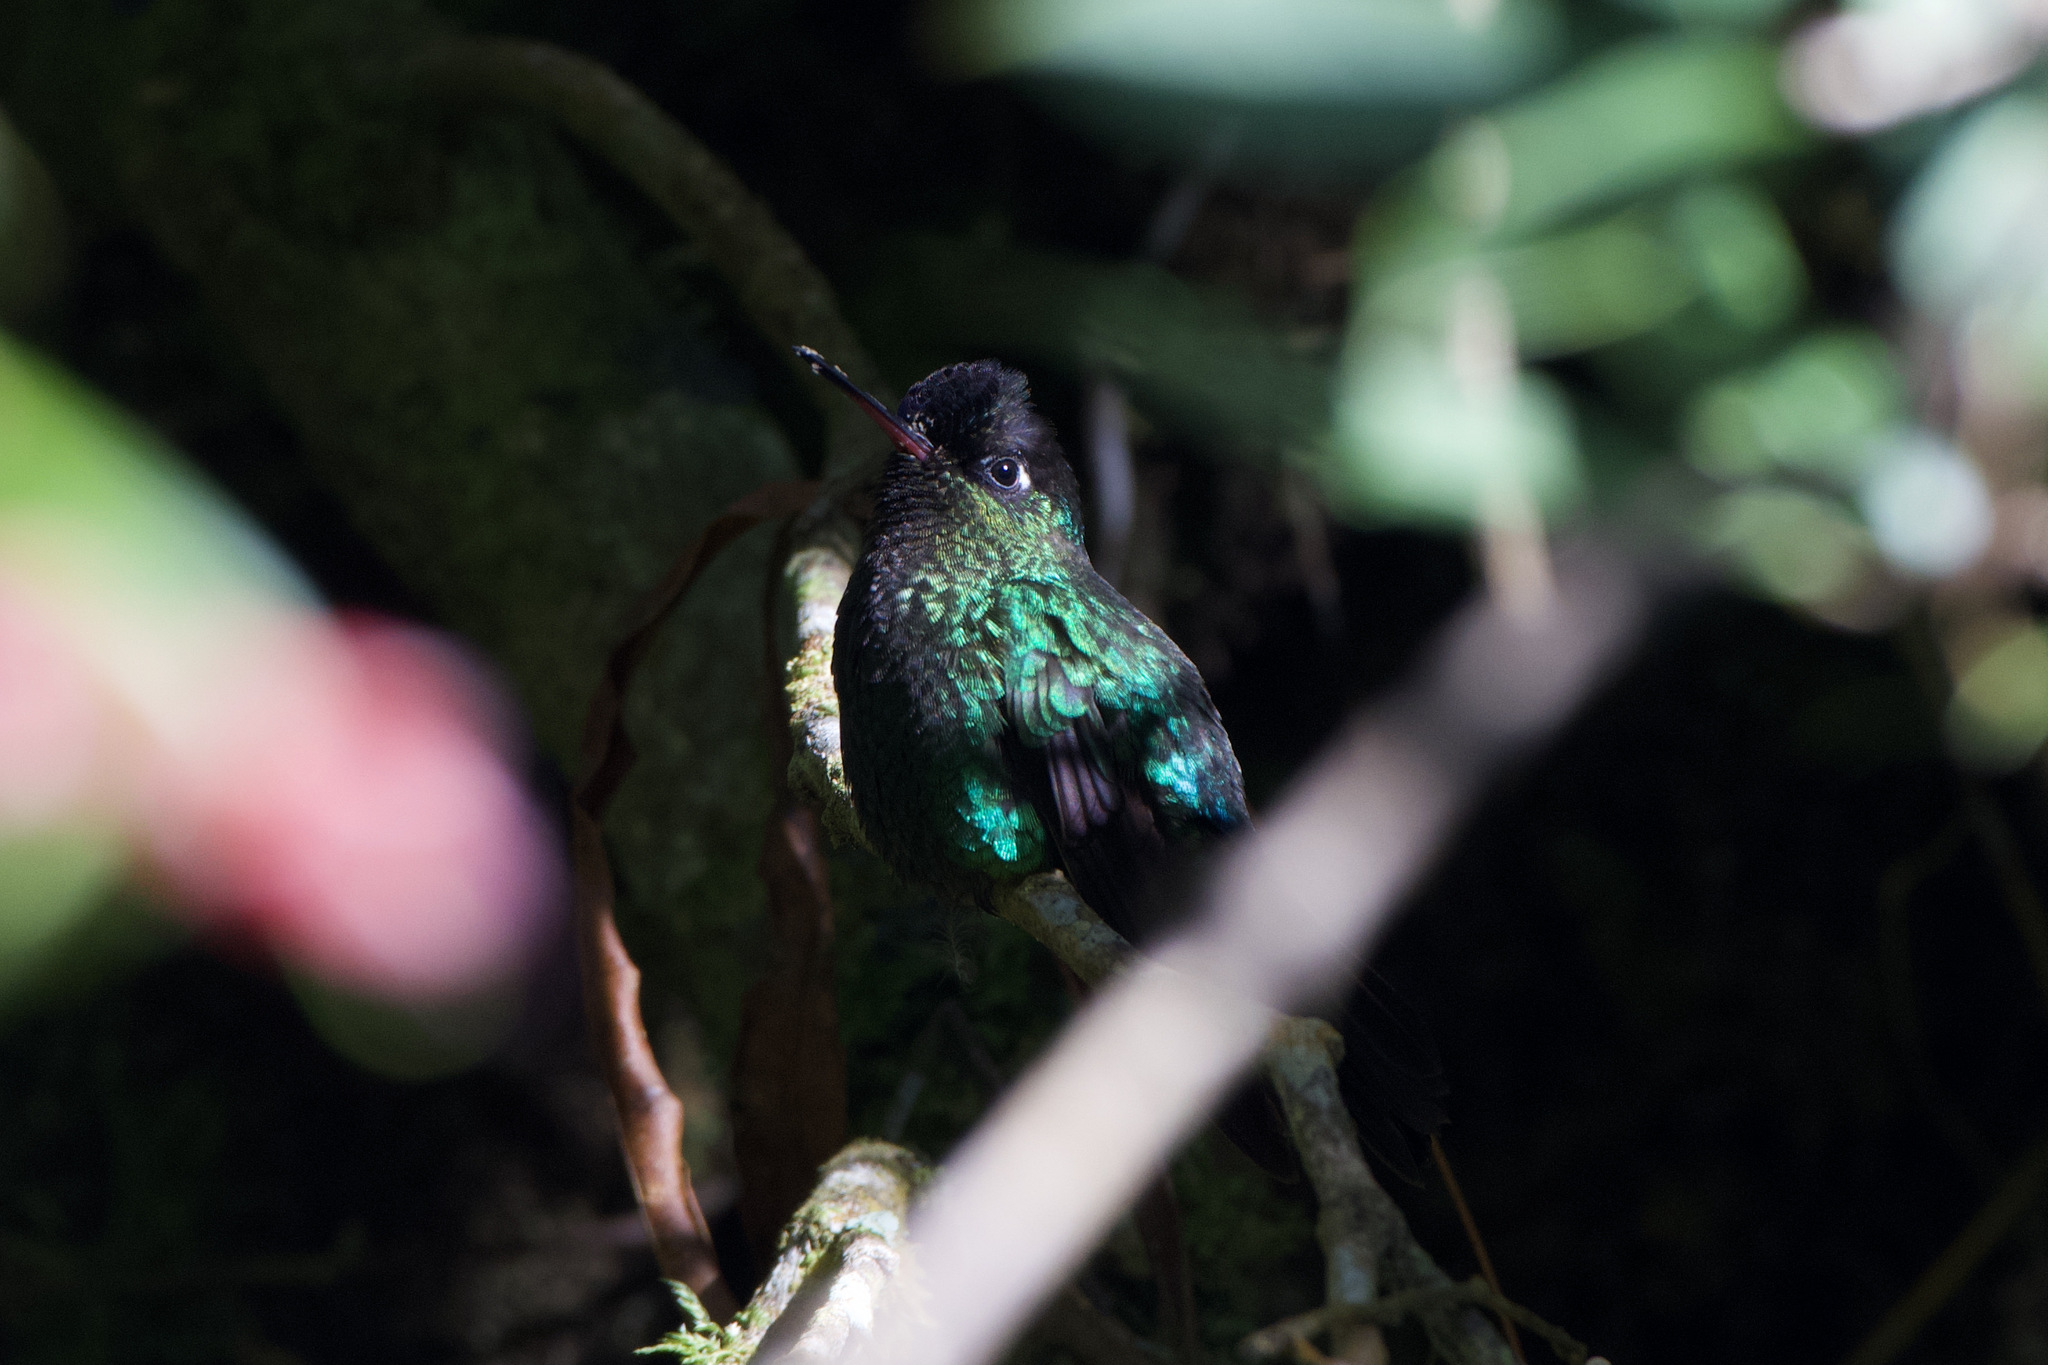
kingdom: Animalia
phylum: Chordata
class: Aves
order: Apodiformes
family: Trochilidae
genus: Panterpe
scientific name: Panterpe insignis
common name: Fiery-throated hummingbird
